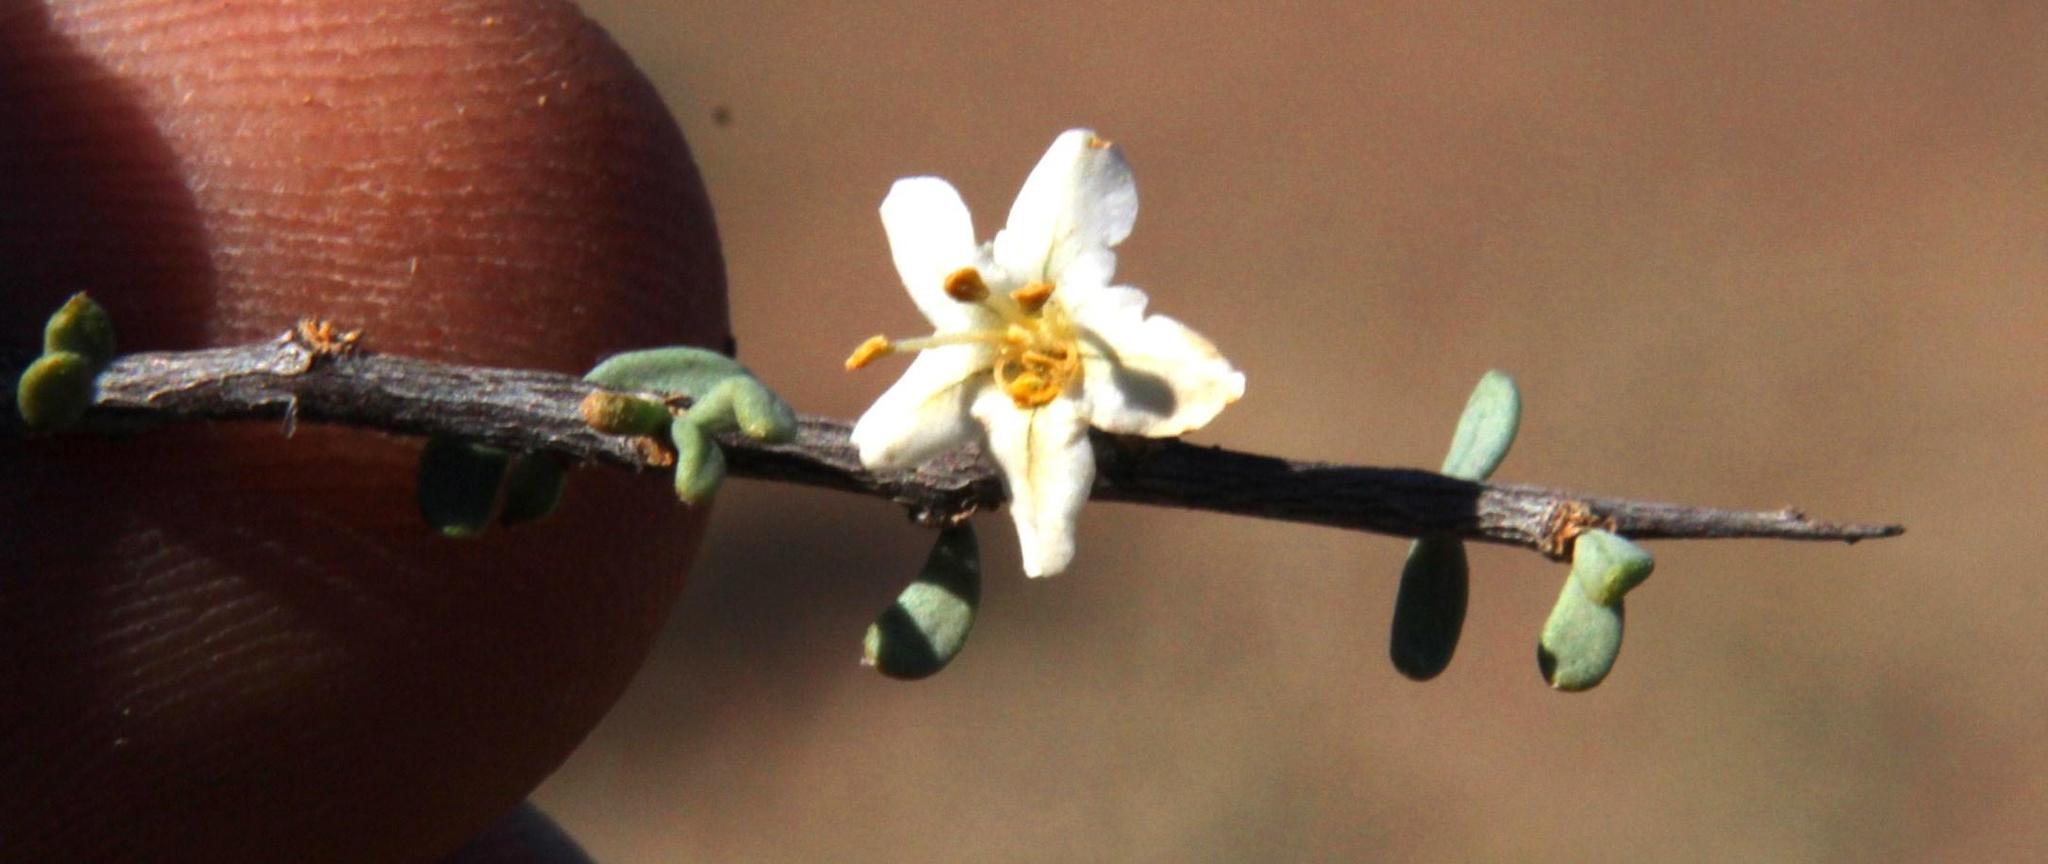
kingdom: Plantae
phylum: Tracheophyta
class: Magnoliopsida
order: Solanales
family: Solanaceae
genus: Lycium
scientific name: Lycium pumilum
